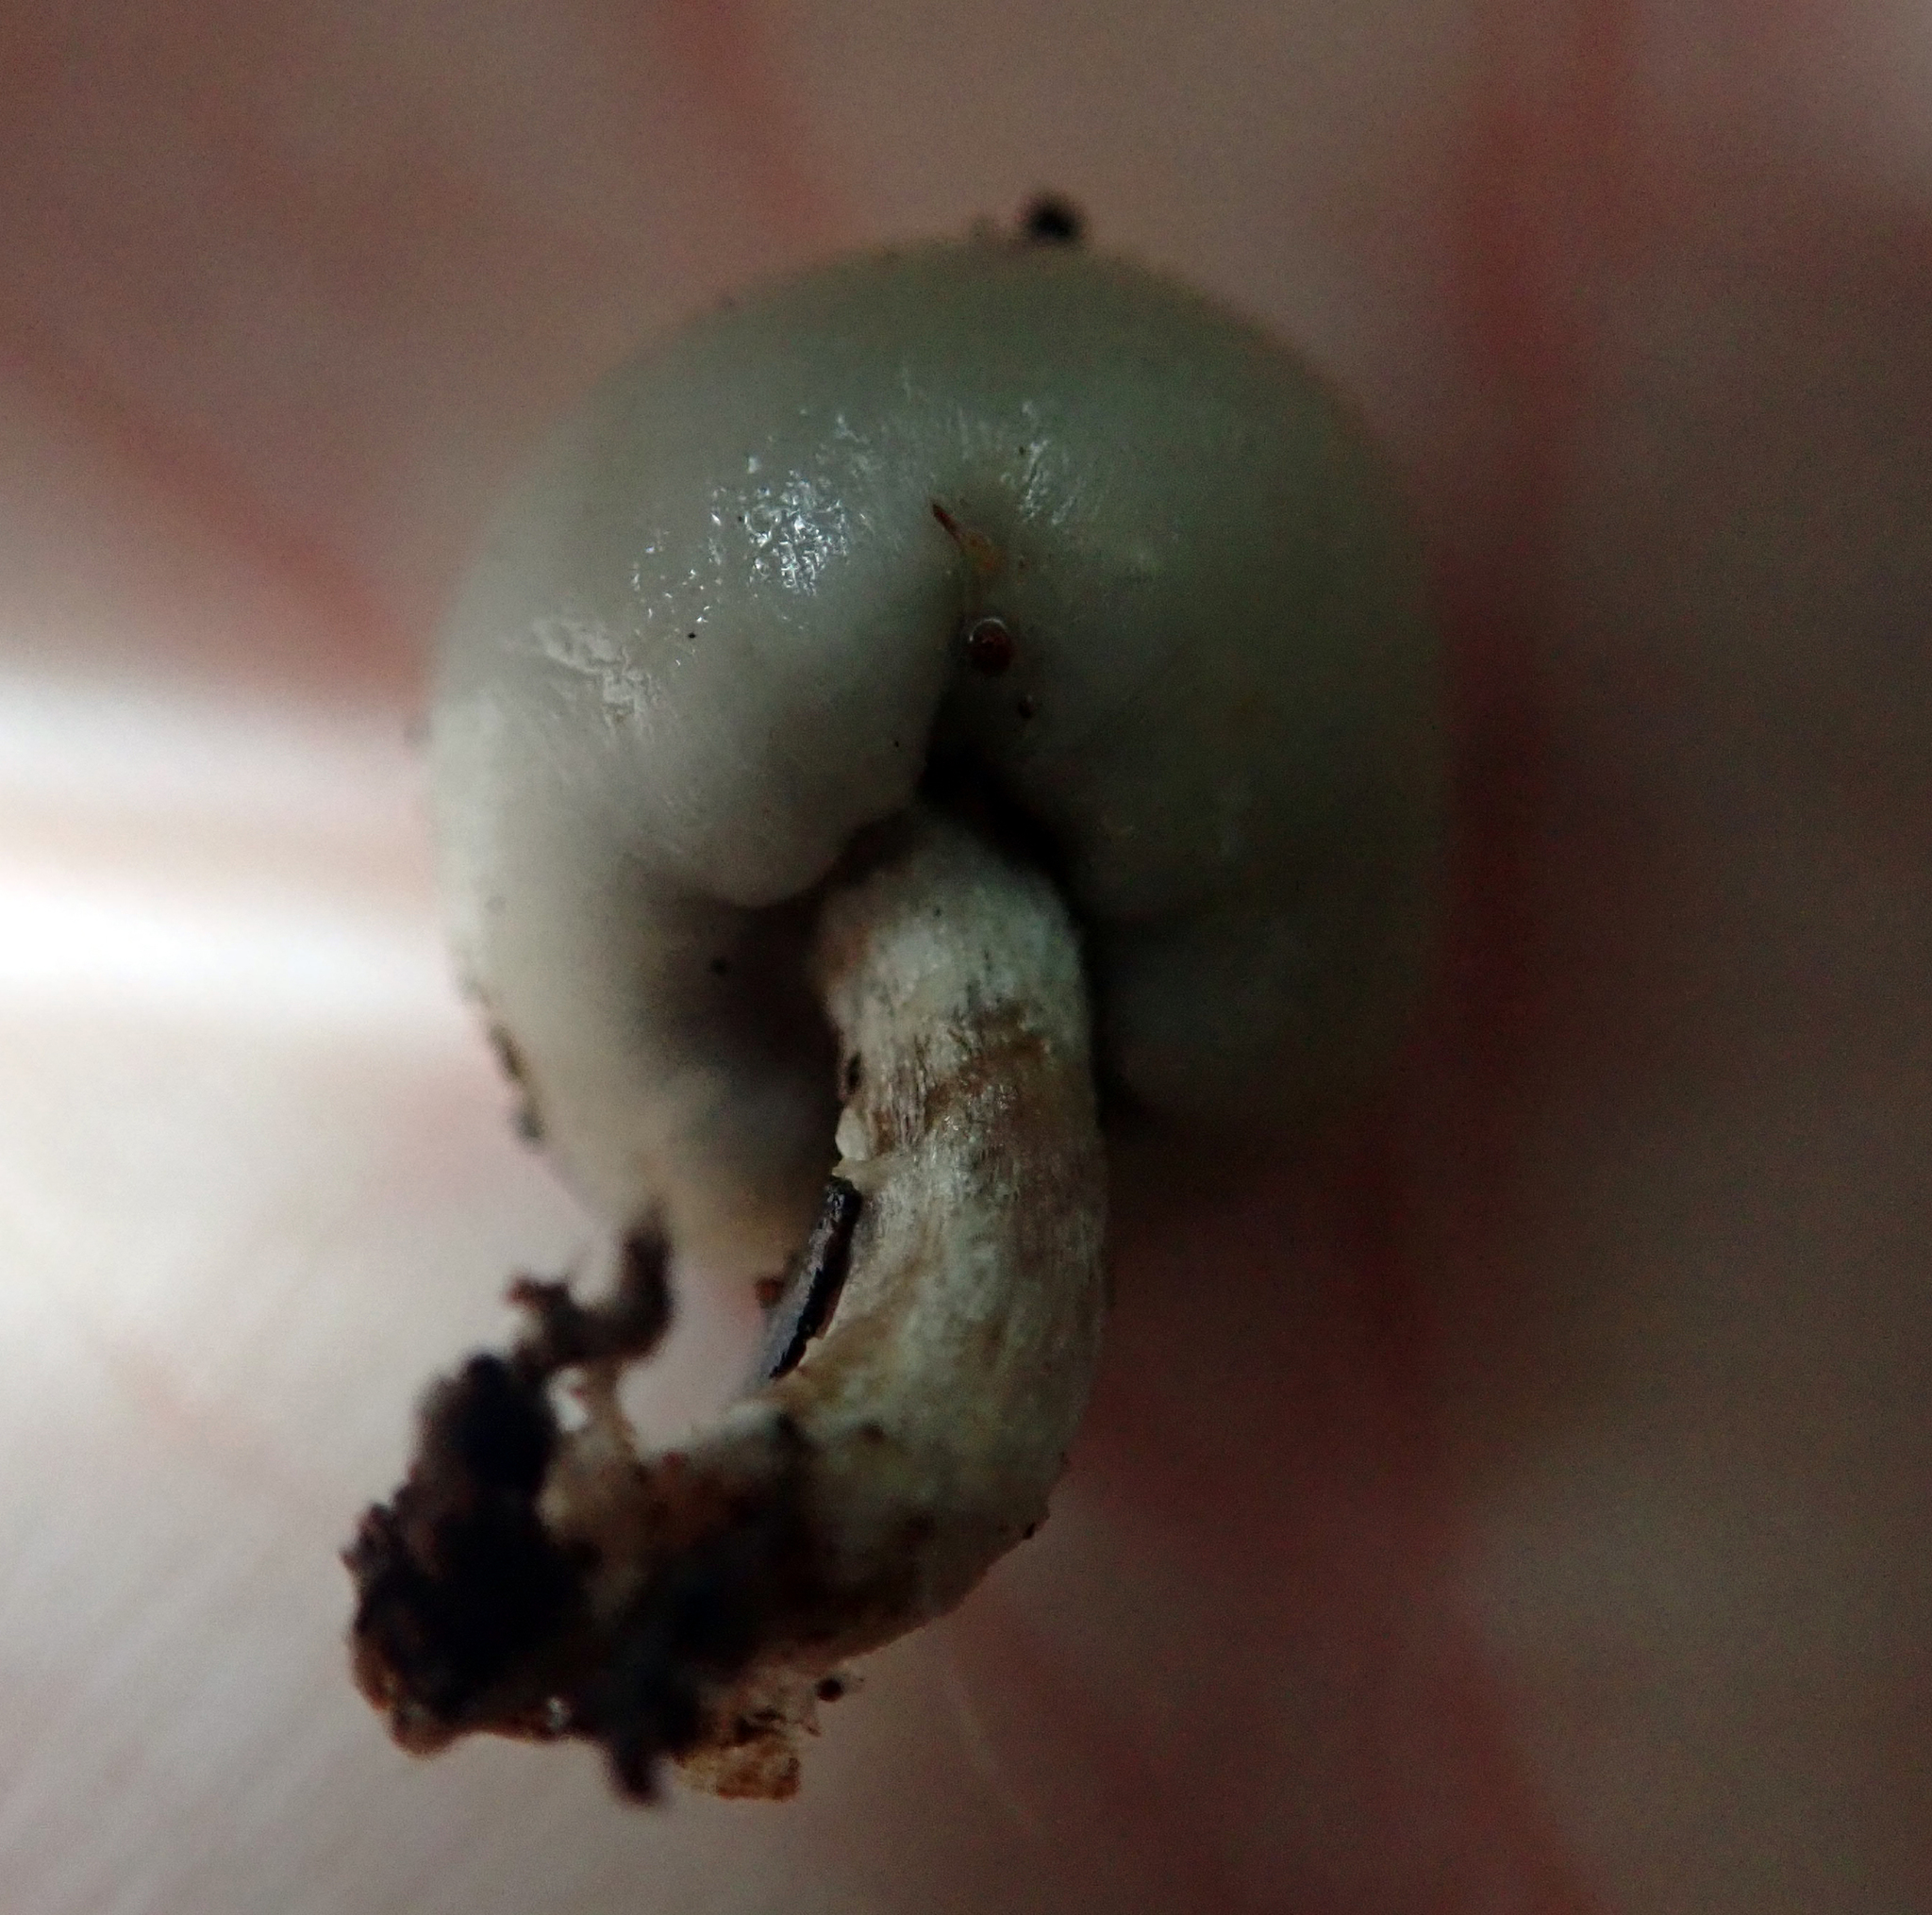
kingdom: Fungi
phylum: Basidiomycota
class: Agaricomycetes
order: Agaricales
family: Hymenogastraceae
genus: Psilocybe
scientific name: Psilocybe weraroa
